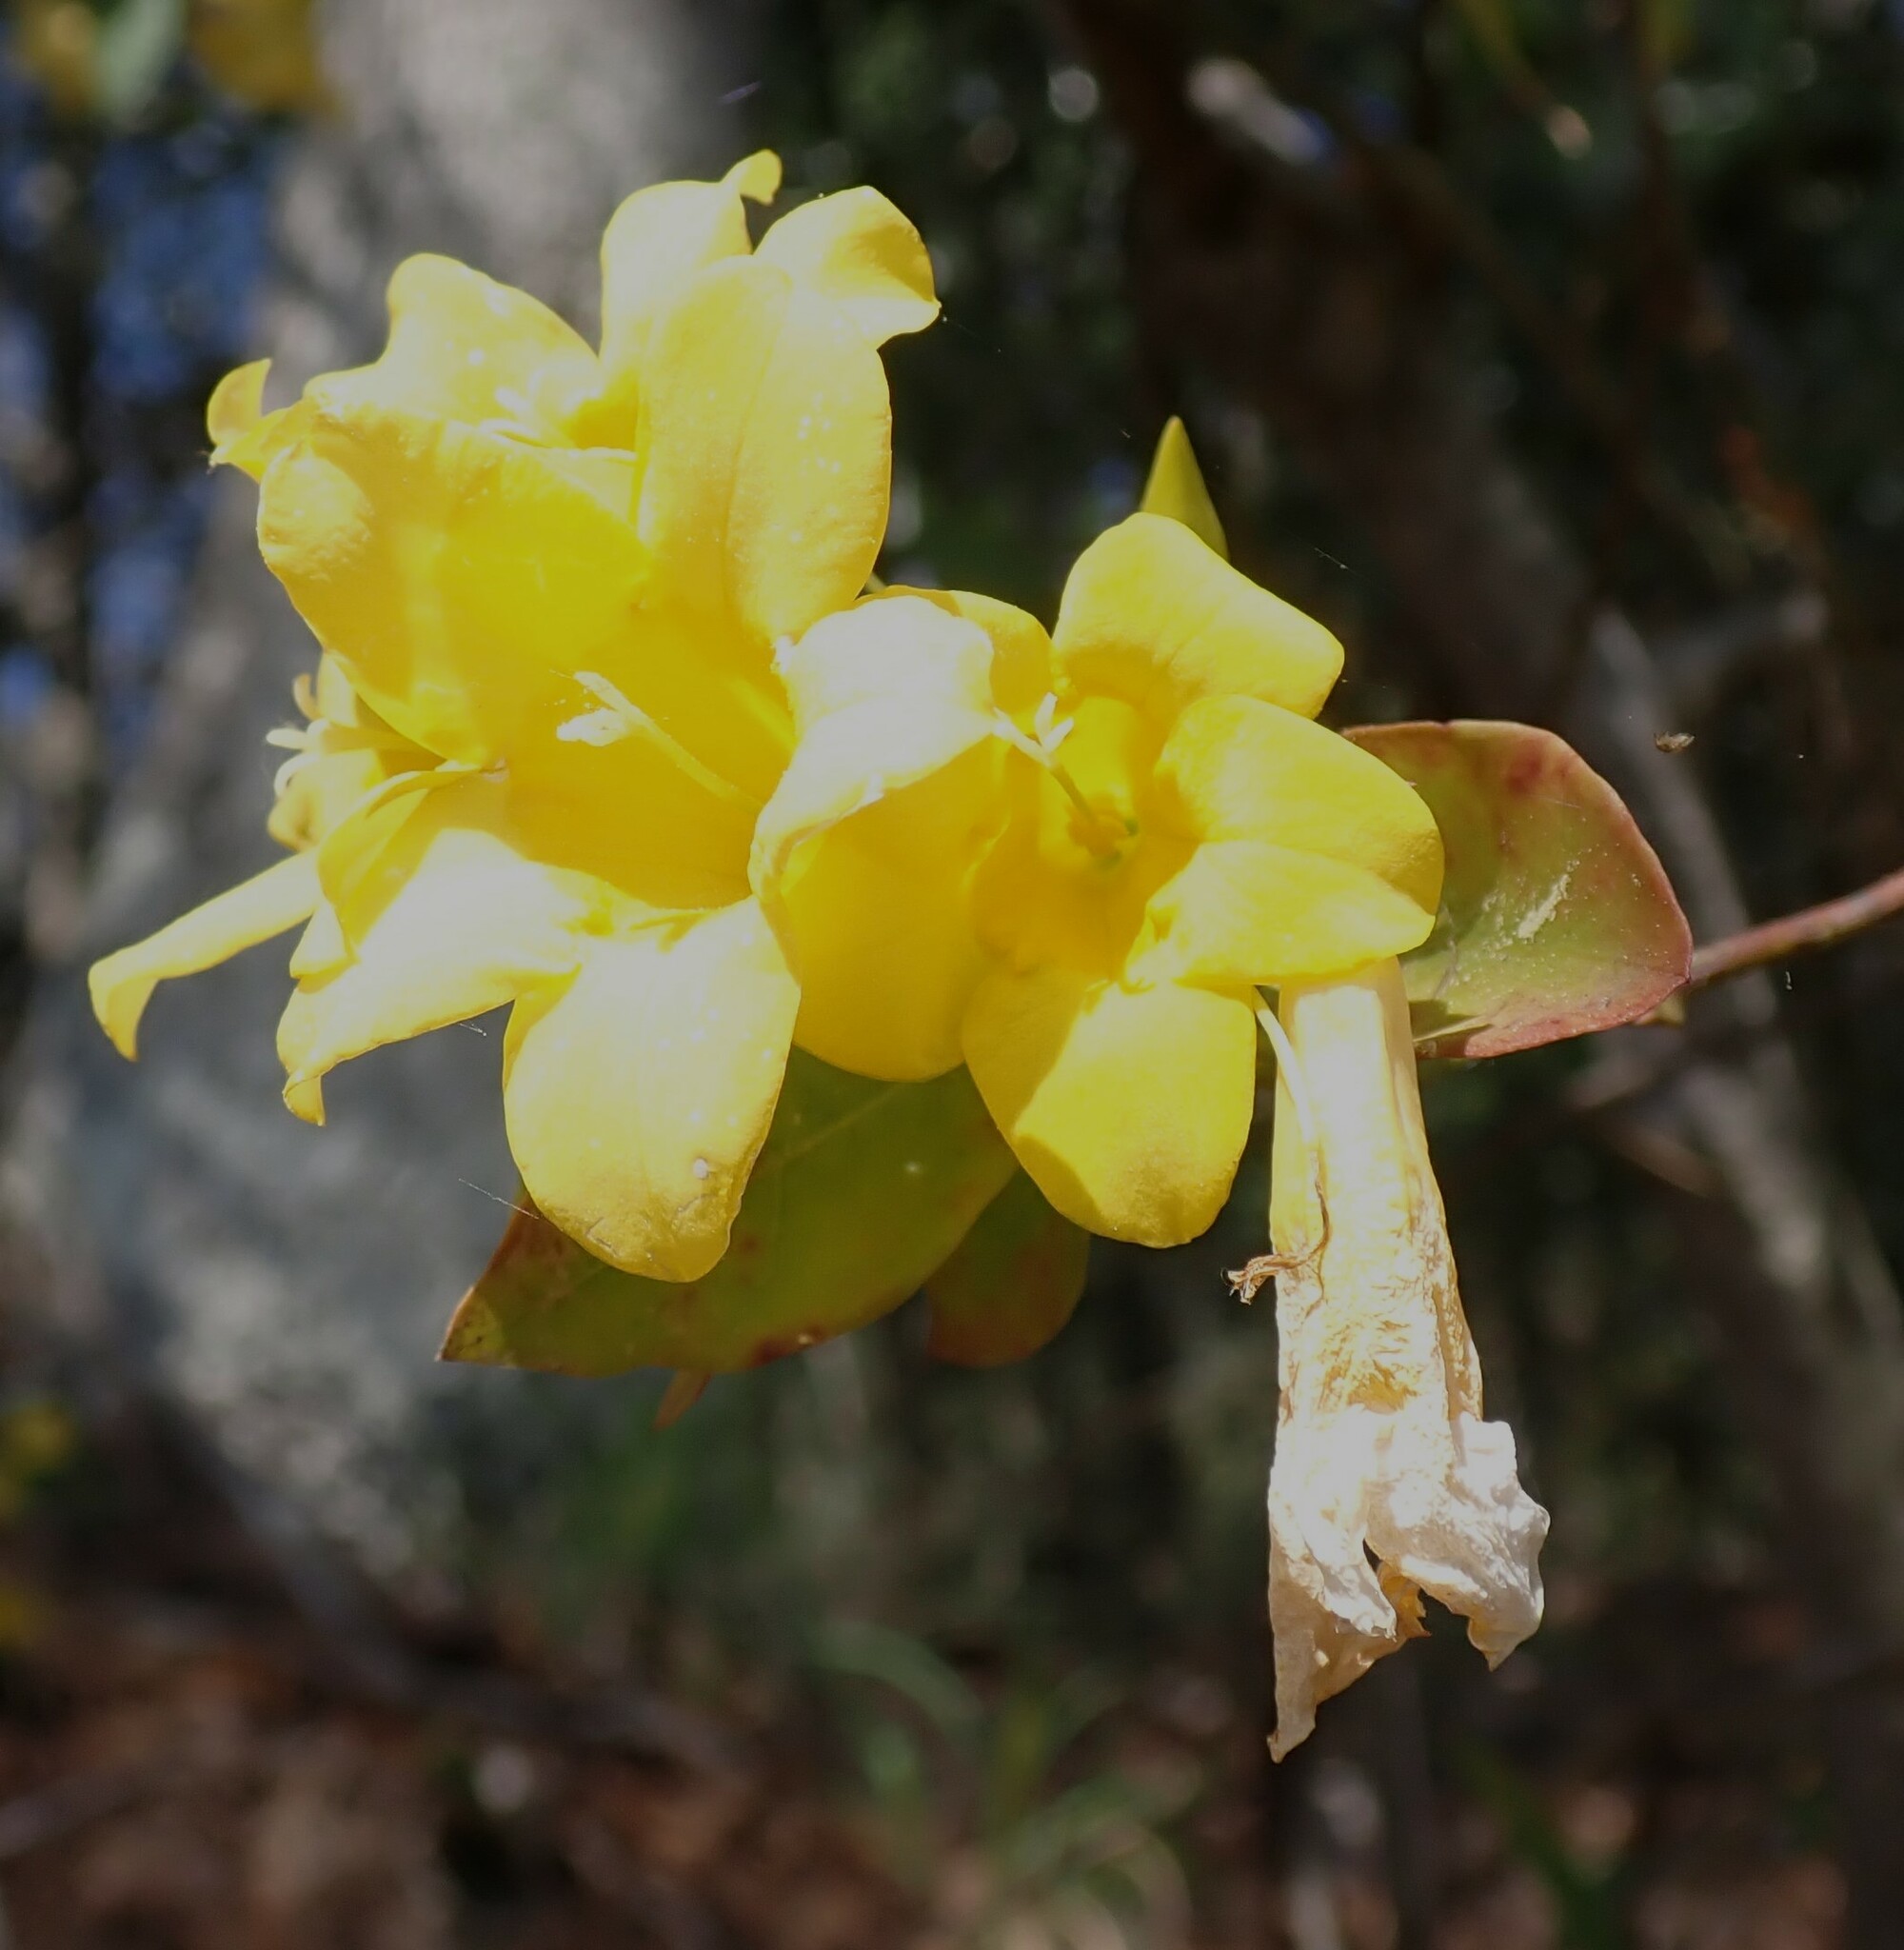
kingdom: Plantae
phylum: Tracheophyta
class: Magnoliopsida
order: Gentianales
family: Gelsemiaceae
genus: Gelsemium
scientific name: Gelsemium rankinii
